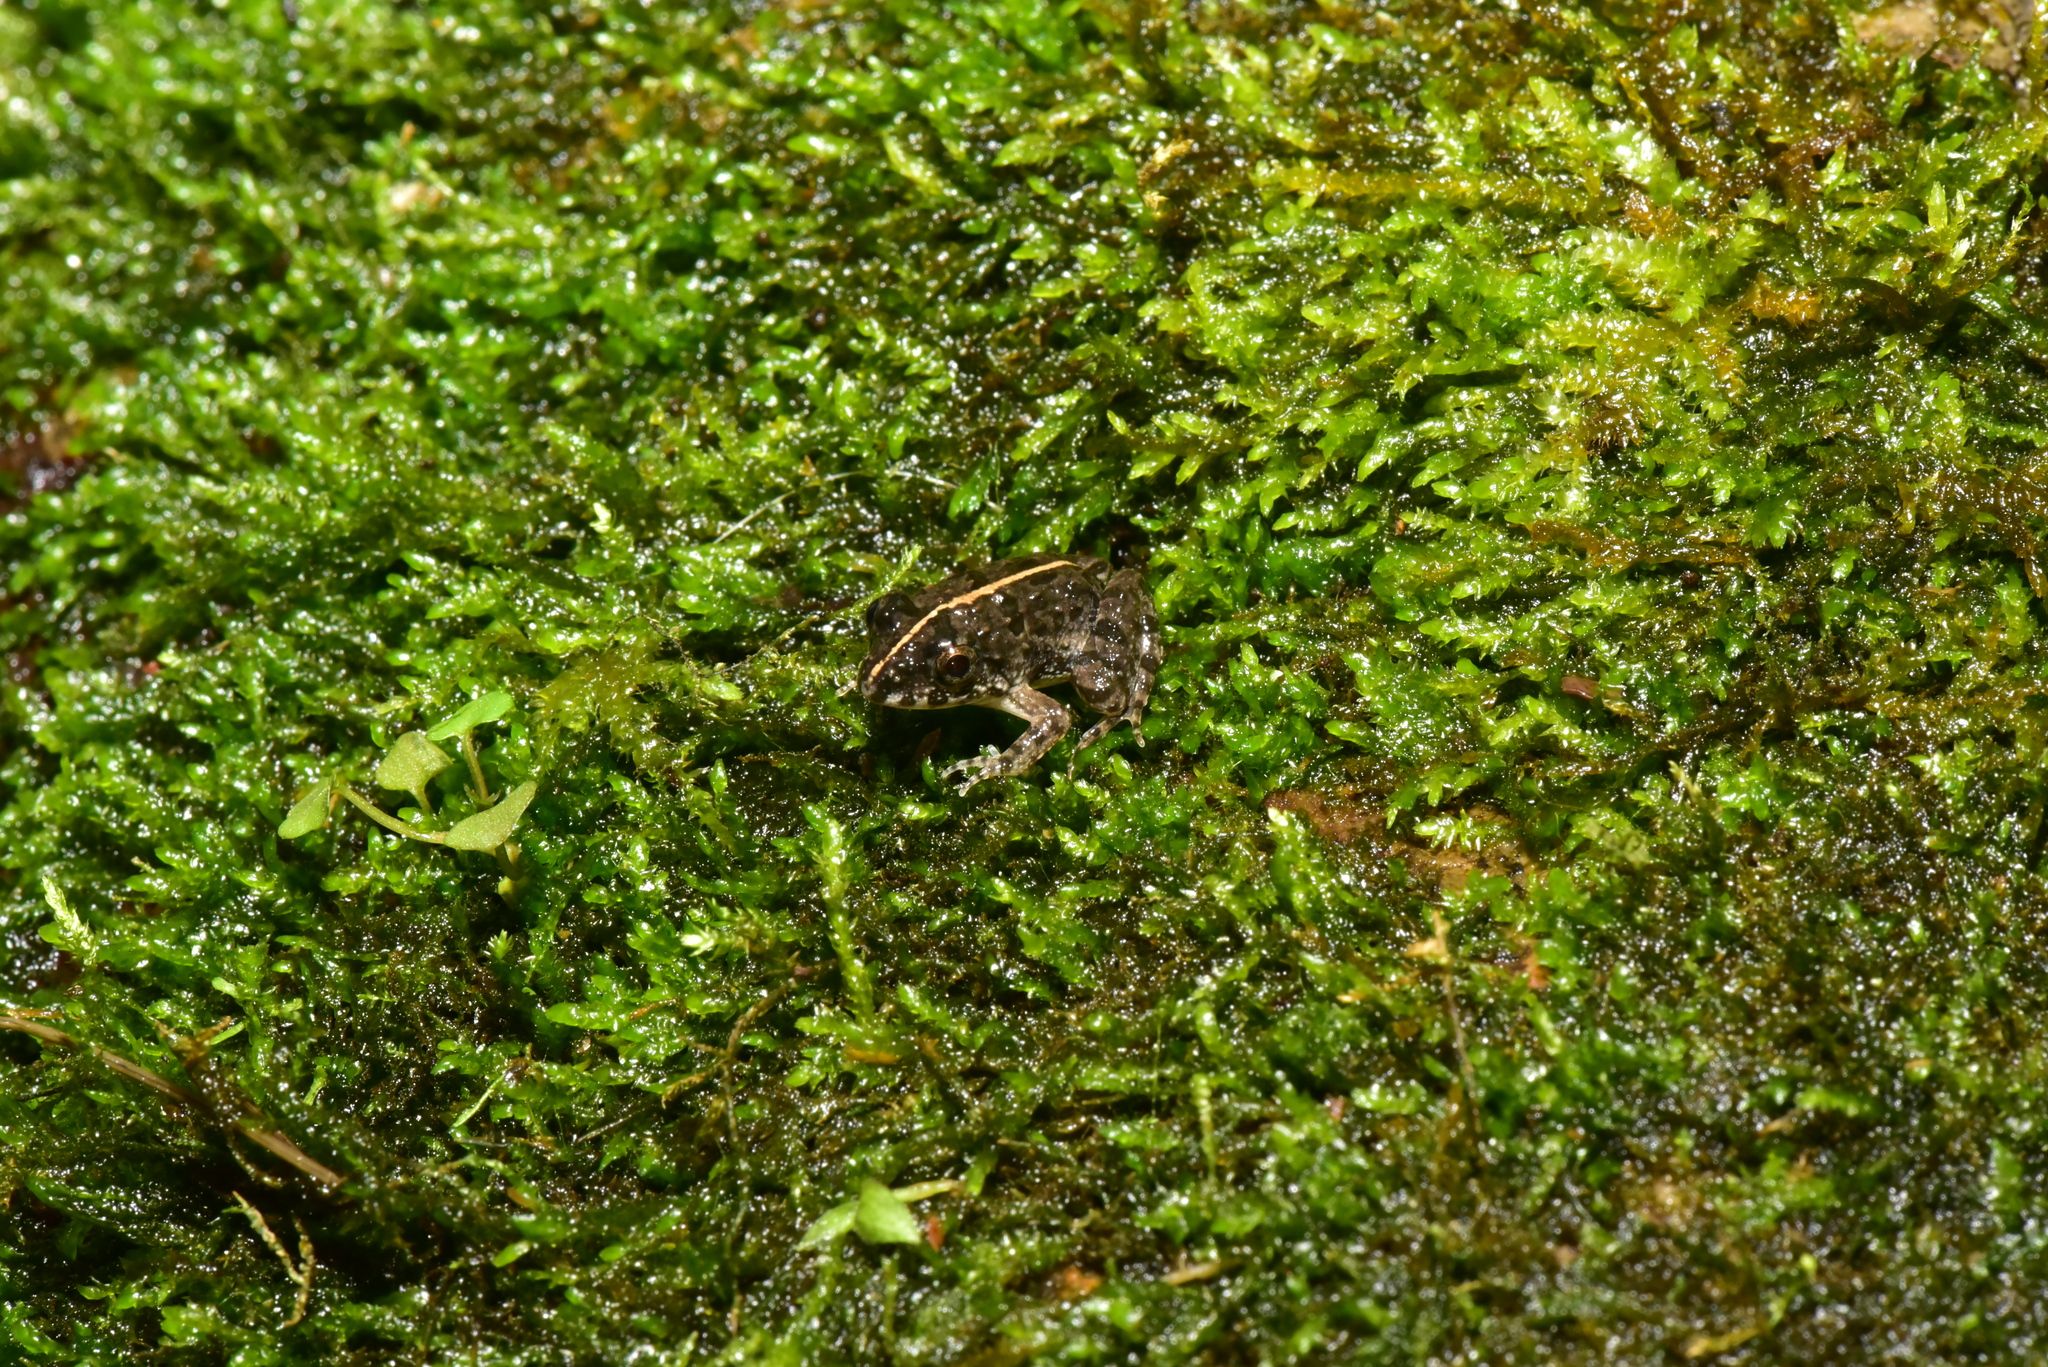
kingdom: Animalia
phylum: Chordata
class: Amphibia
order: Anura
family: Dicroglossidae
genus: Fejervarya
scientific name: Fejervarya limnocharis
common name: Asian grass frog/common pond frog/field frog/grass frog/indian rice frog
